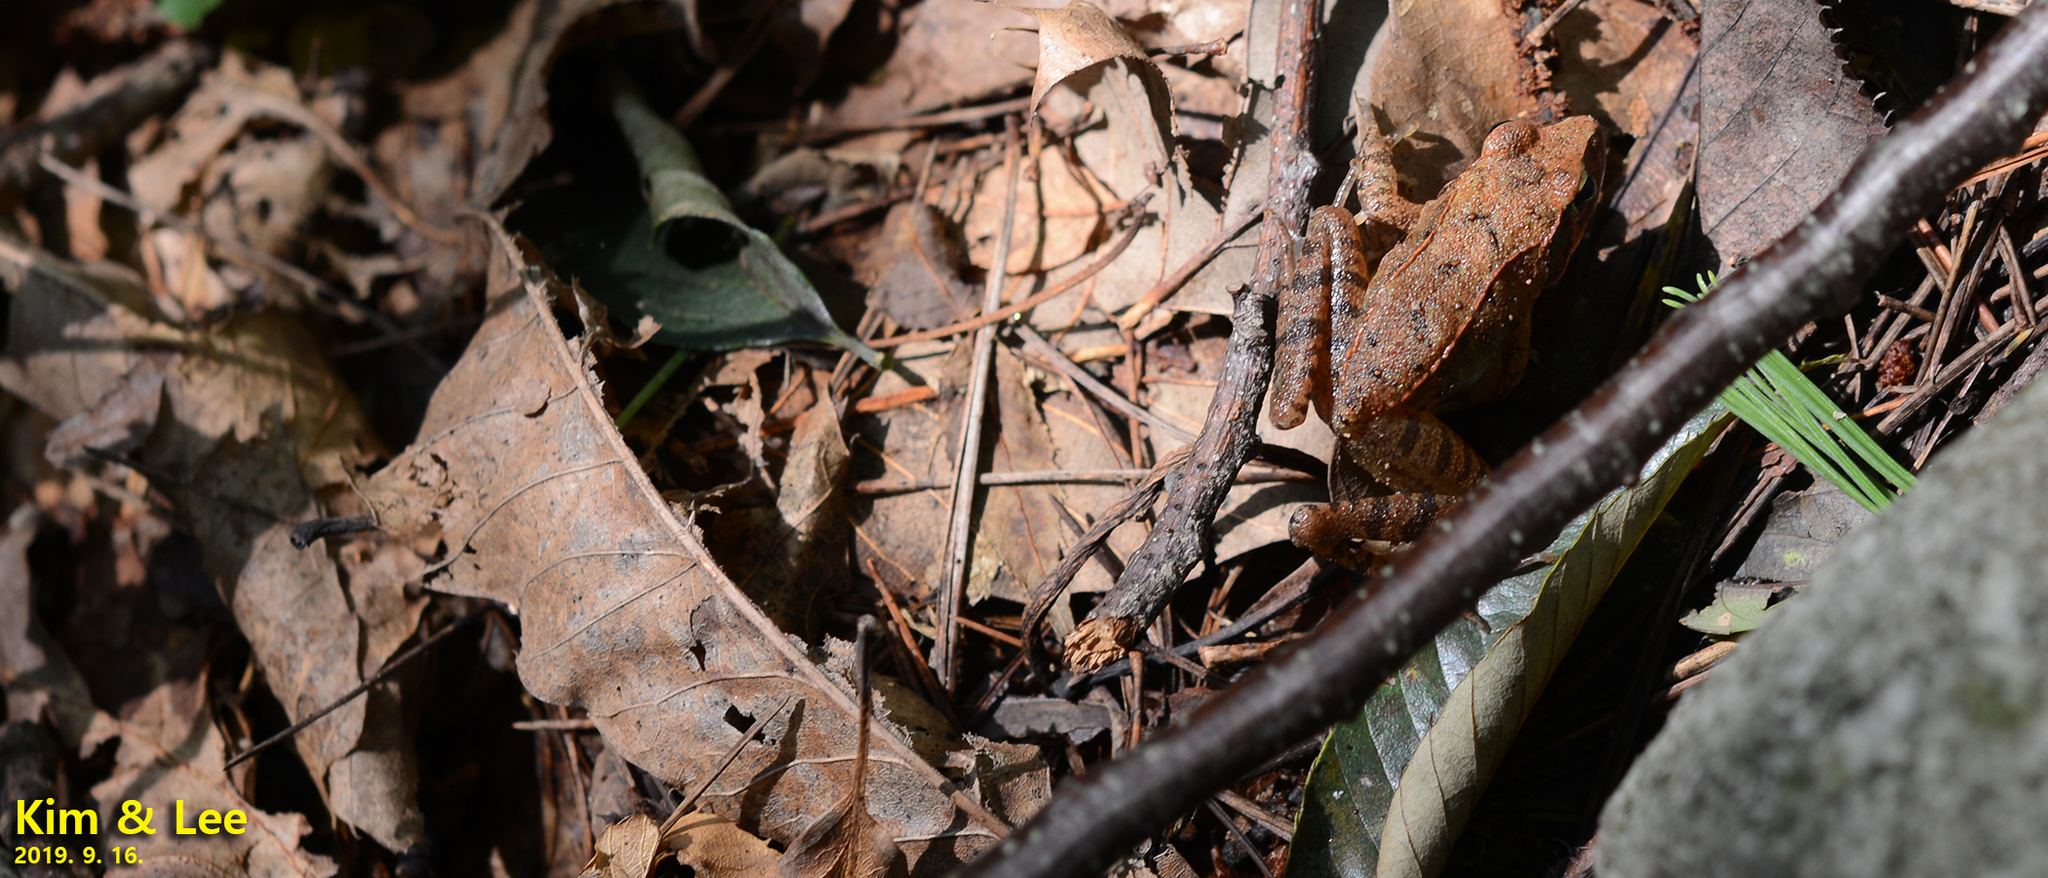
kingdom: Animalia
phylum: Chordata
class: Amphibia
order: Anura
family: Ranidae
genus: Rana
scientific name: Rana uenoi
